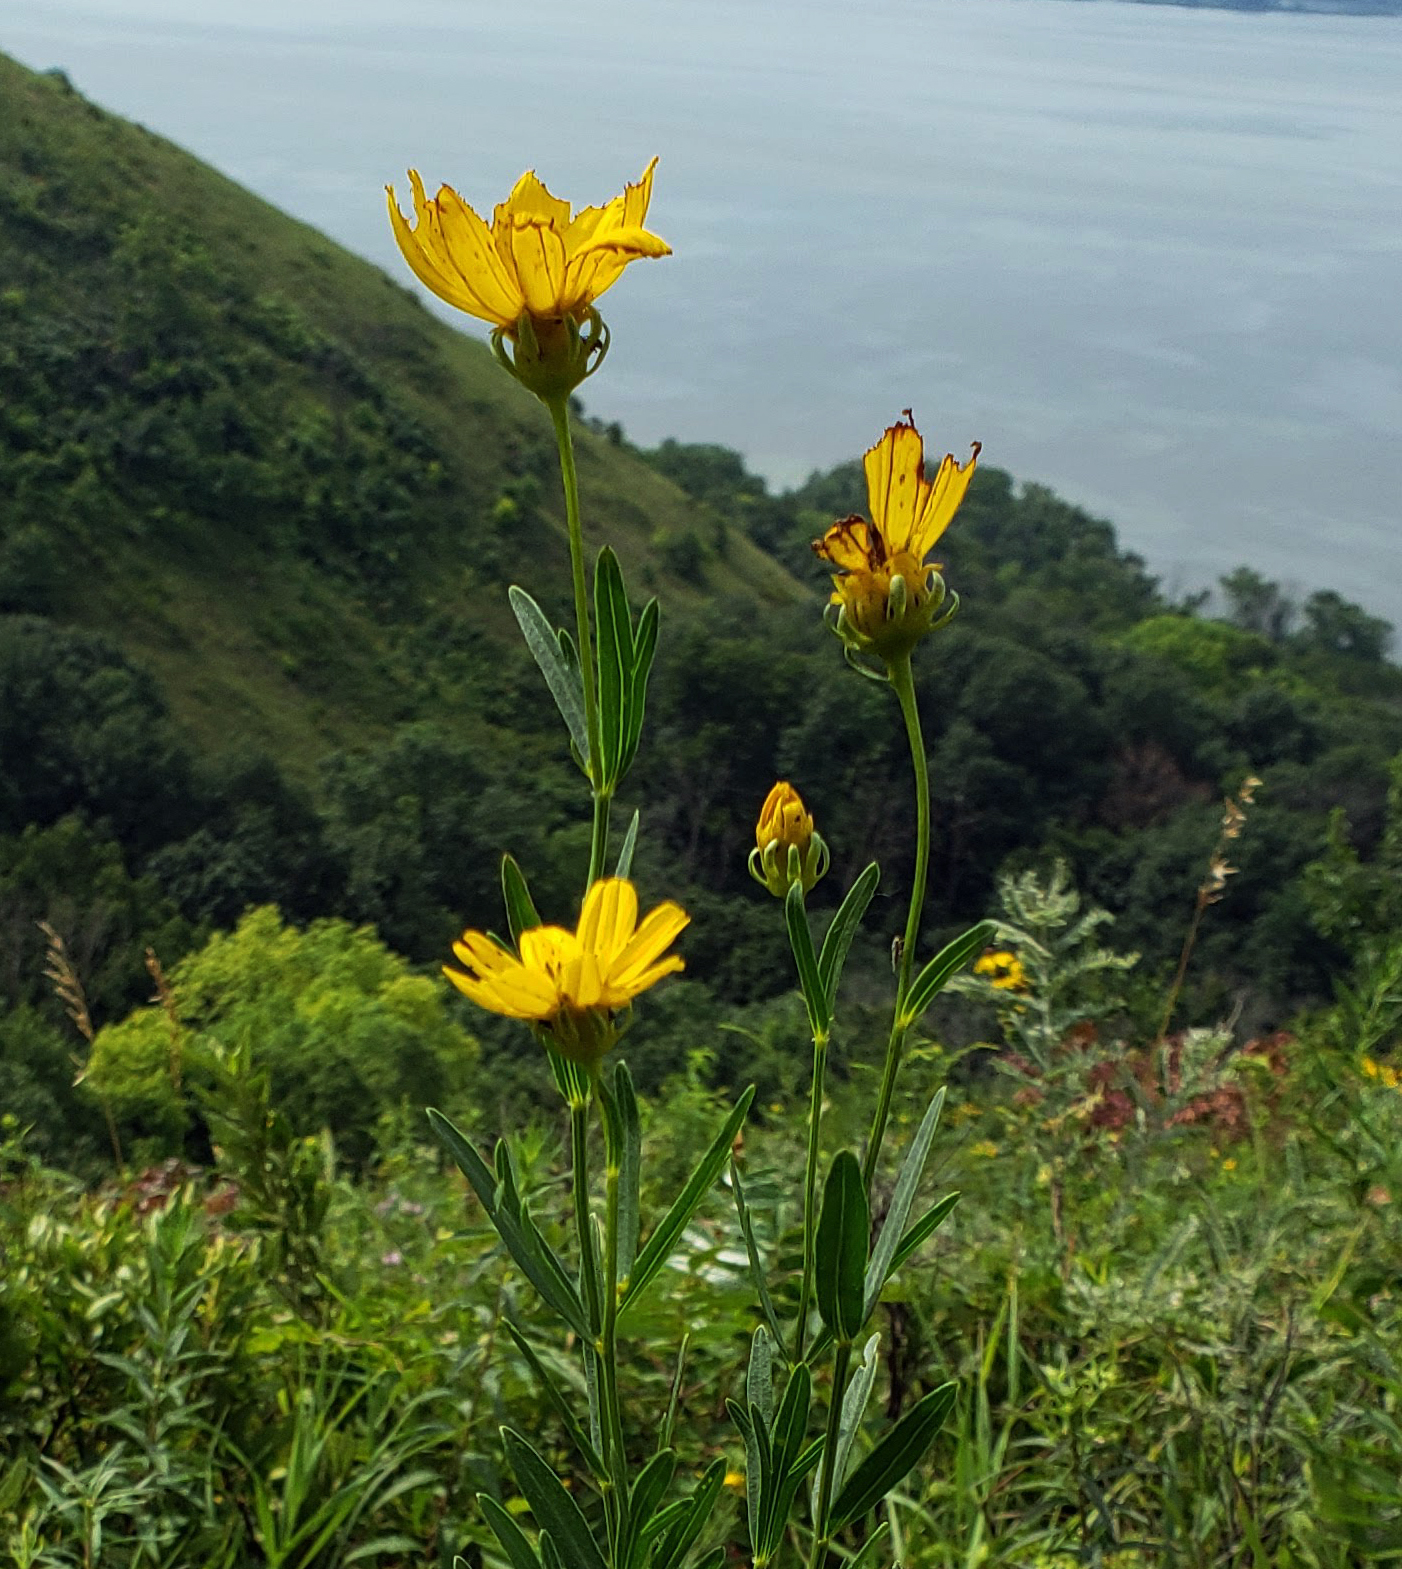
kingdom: Plantae
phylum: Tracheophyta
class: Magnoliopsida
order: Asterales
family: Asteraceae
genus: Coreopsis
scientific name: Coreopsis palmata
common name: Prairie coreopsis
